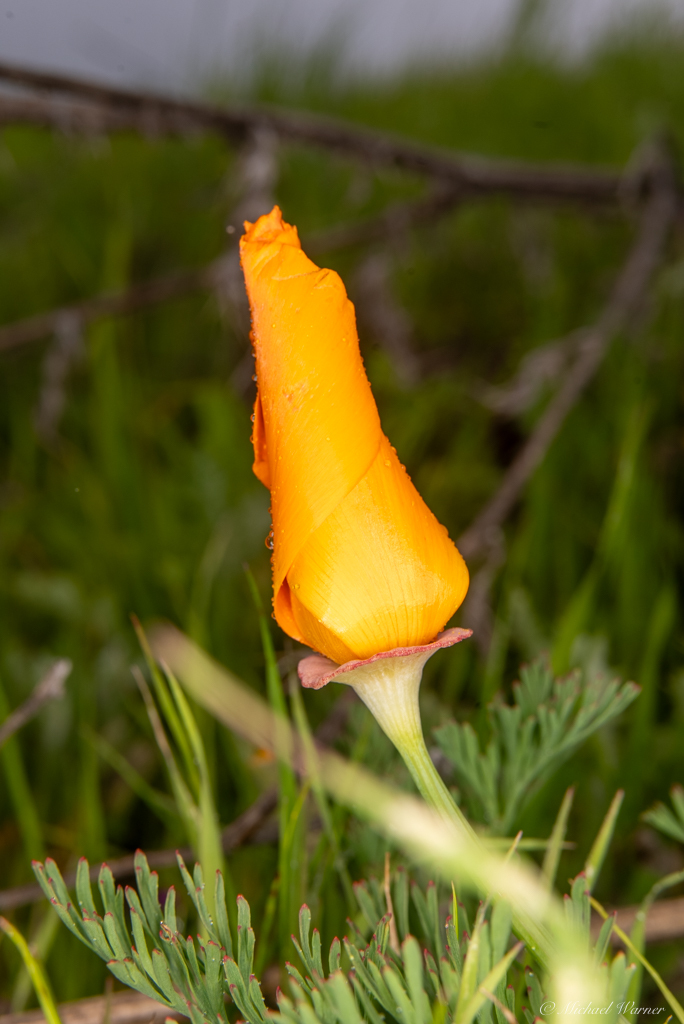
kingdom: Plantae
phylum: Tracheophyta
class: Magnoliopsida
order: Ranunculales
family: Papaveraceae
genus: Eschscholzia
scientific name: Eschscholzia californica
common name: California poppy
